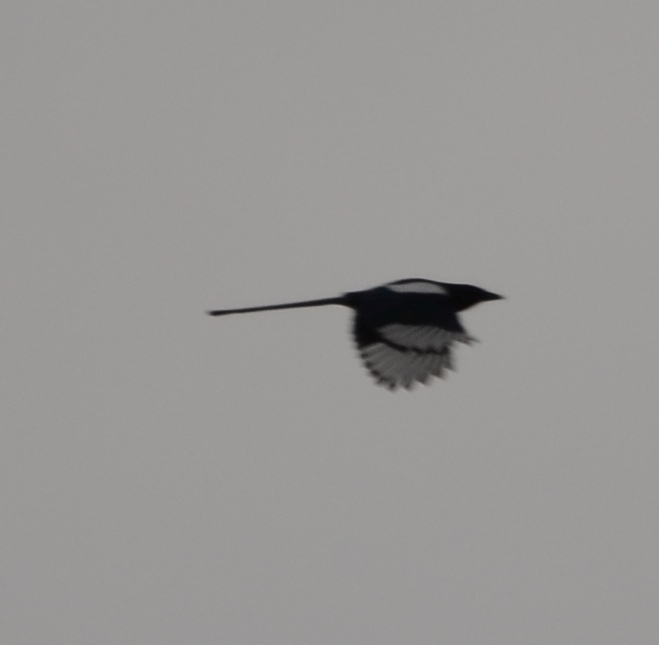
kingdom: Animalia
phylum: Chordata
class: Aves
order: Passeriformes
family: Corvidae
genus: Pica
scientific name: Pica pica
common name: Eurasian magpie
